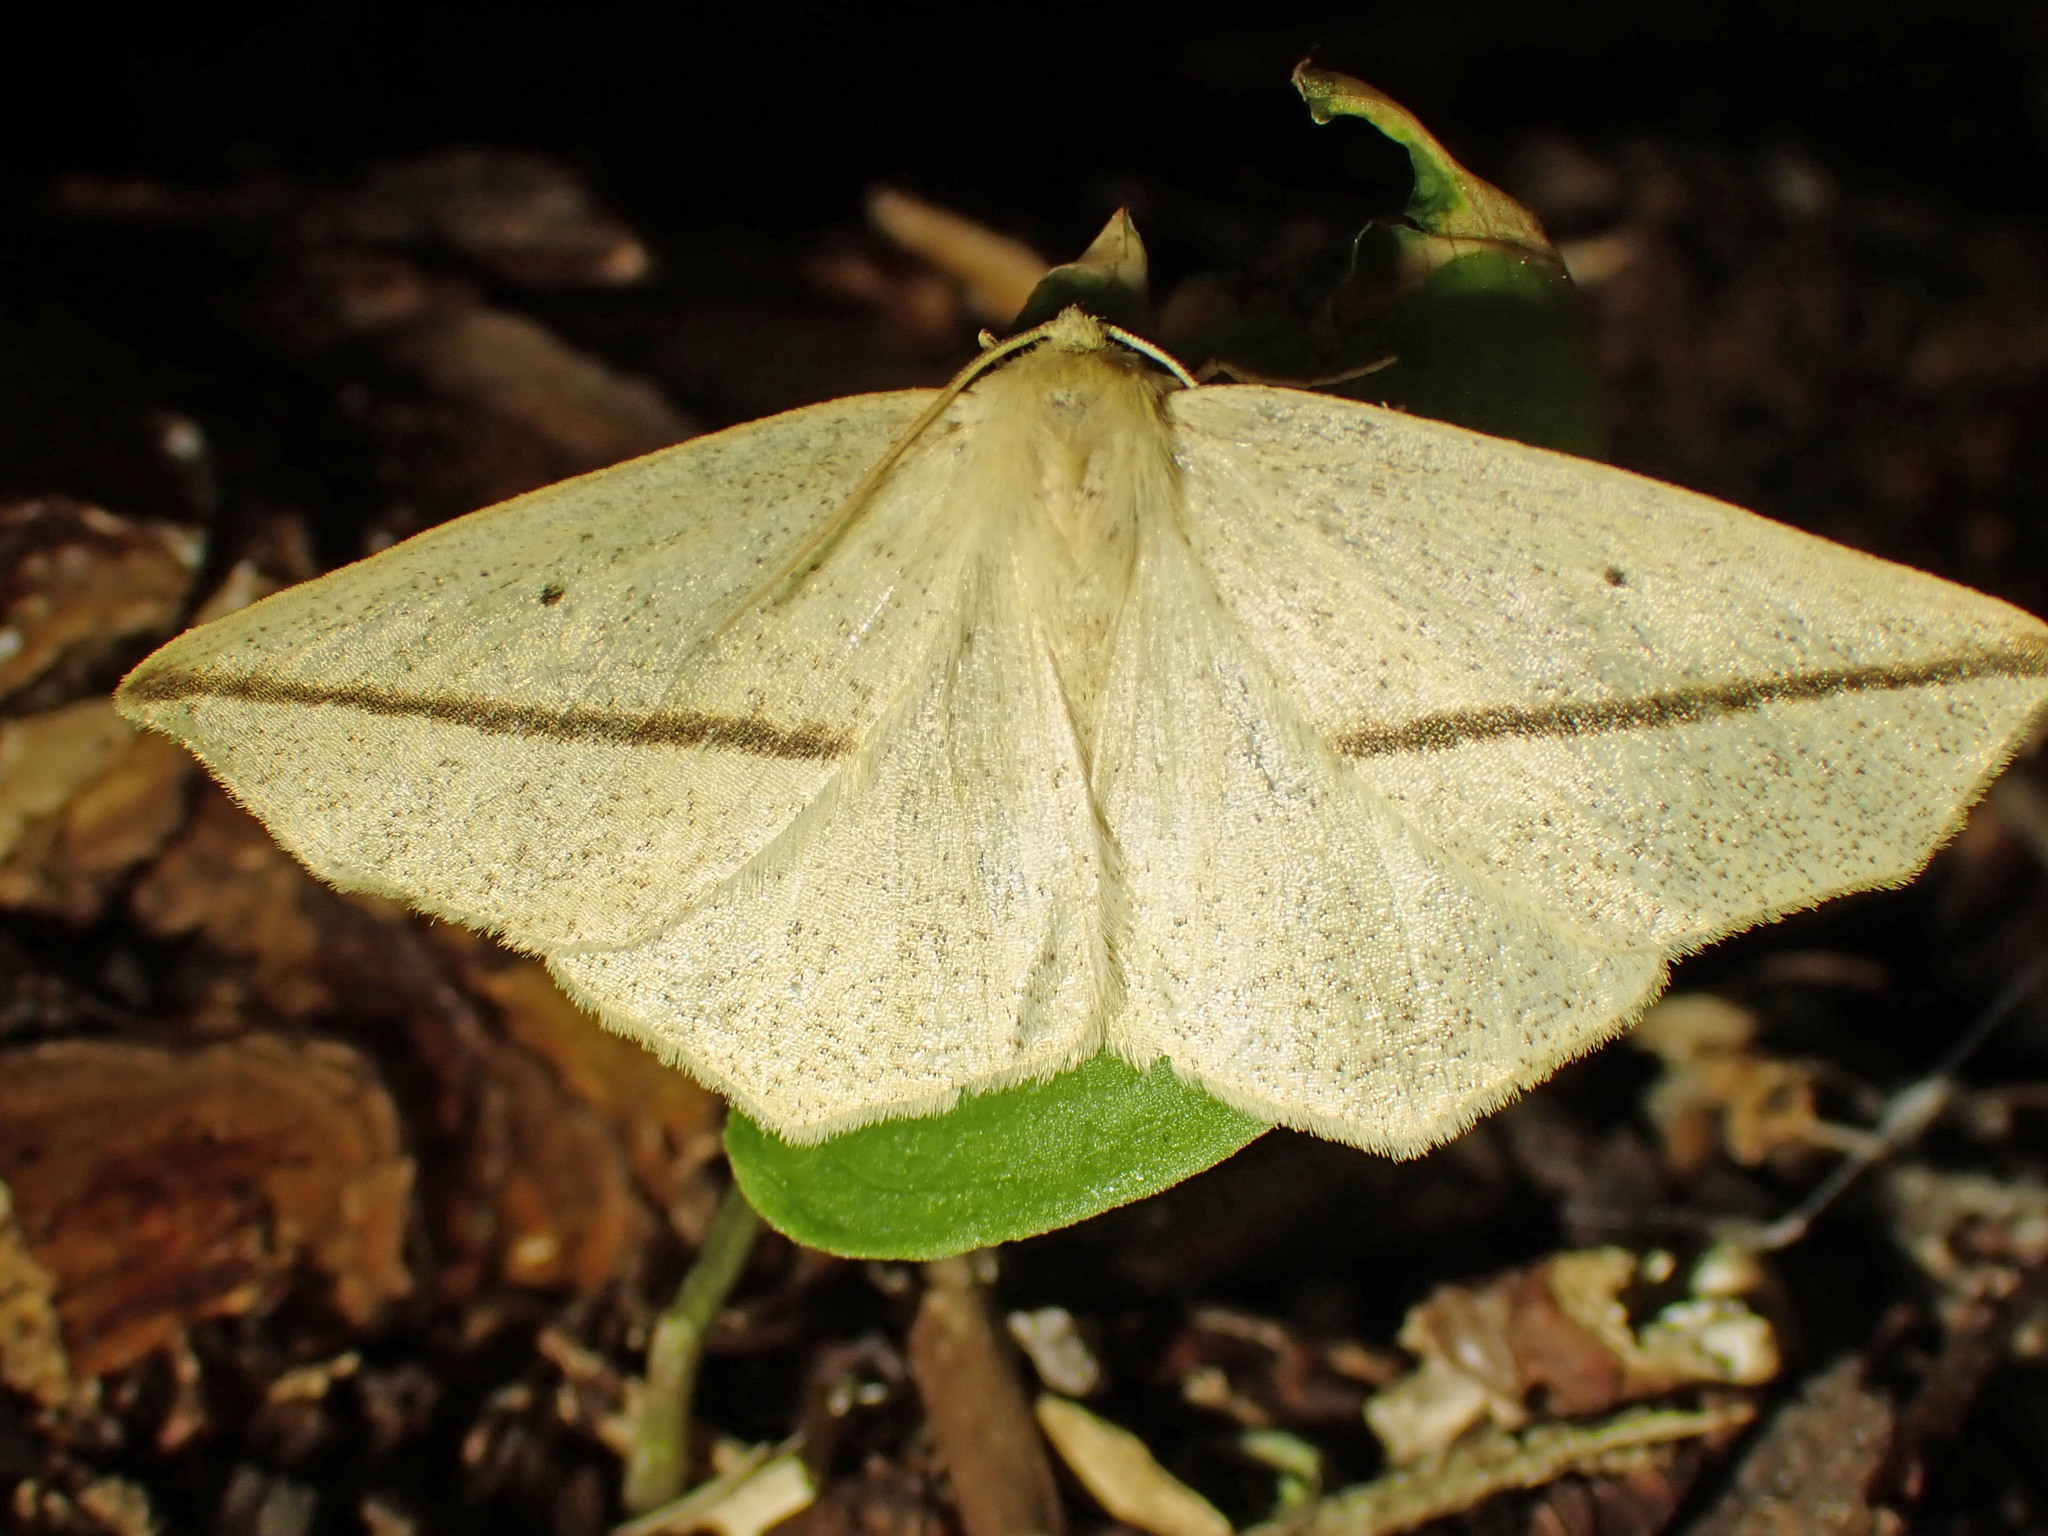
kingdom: Animalia
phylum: Arthropoda
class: Insecta
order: Lepidoptera
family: Geometridae
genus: Tetracis
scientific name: Tetracis crocallata
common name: Yellow slant-line
